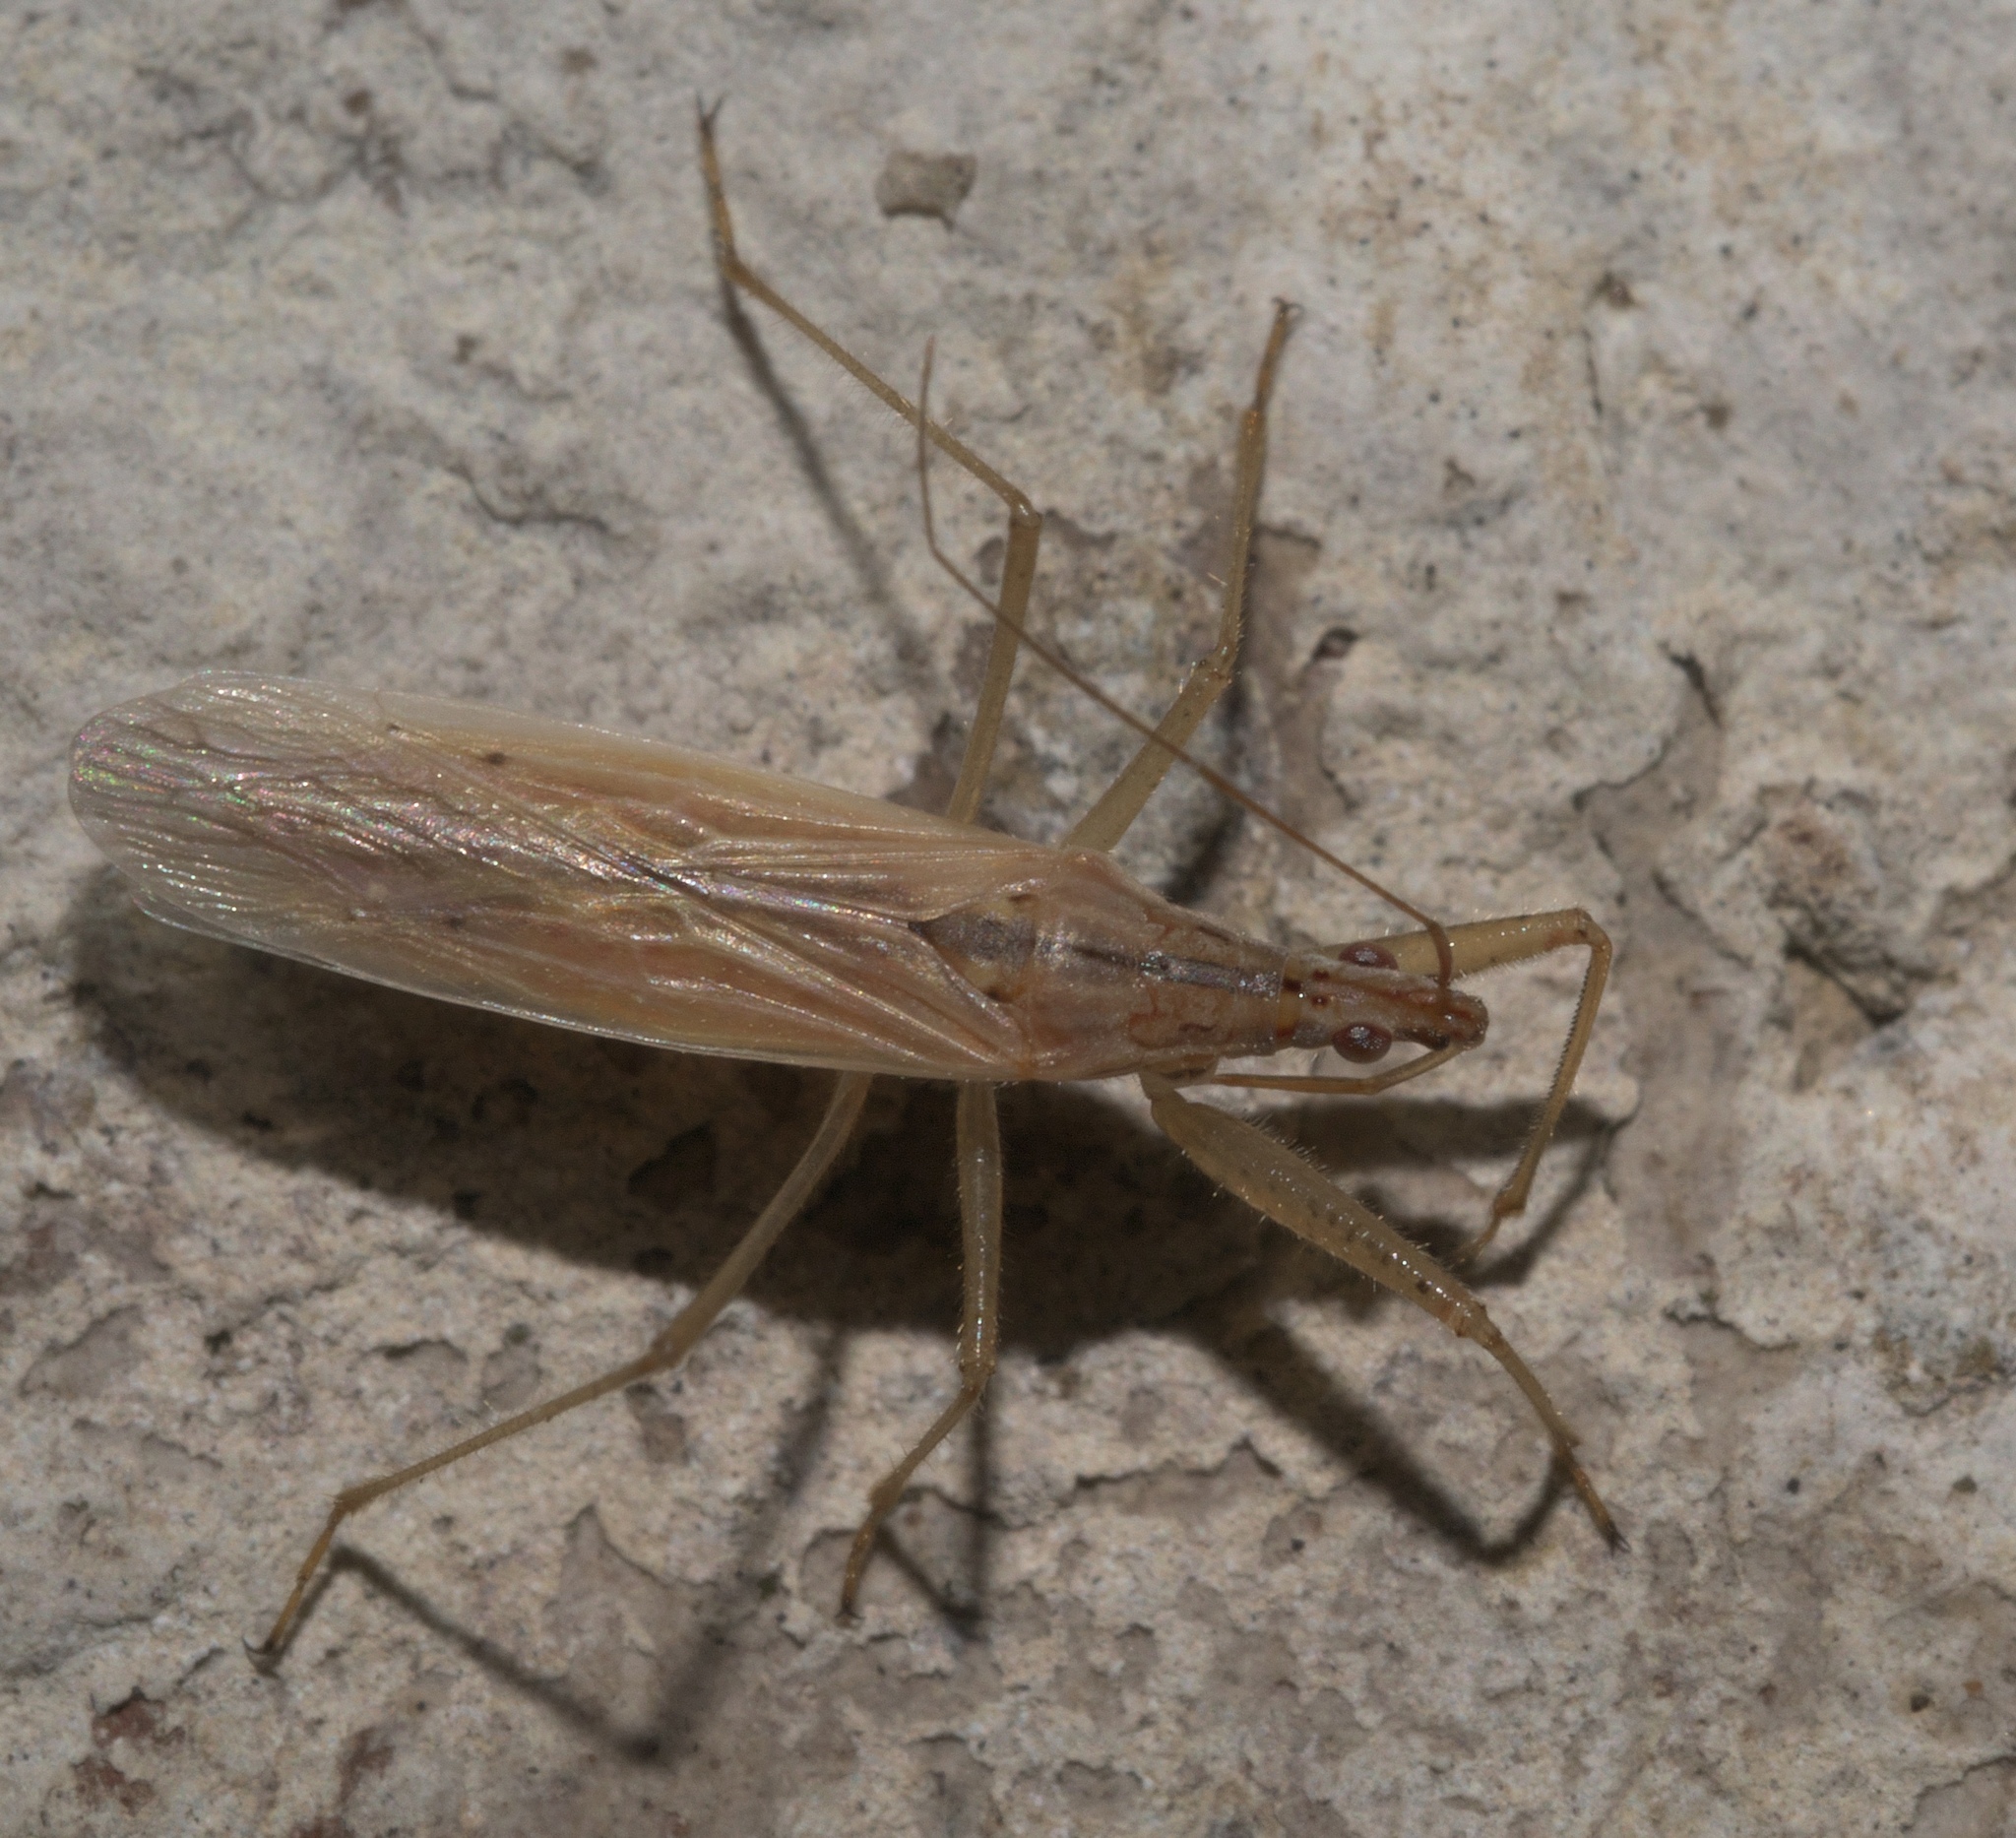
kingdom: Animalia
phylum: Arthropoda
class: Insecta
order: Hemiptera
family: Nabidae
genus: Nabis
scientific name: Nabis capsiformis
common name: Pale damsel bug
